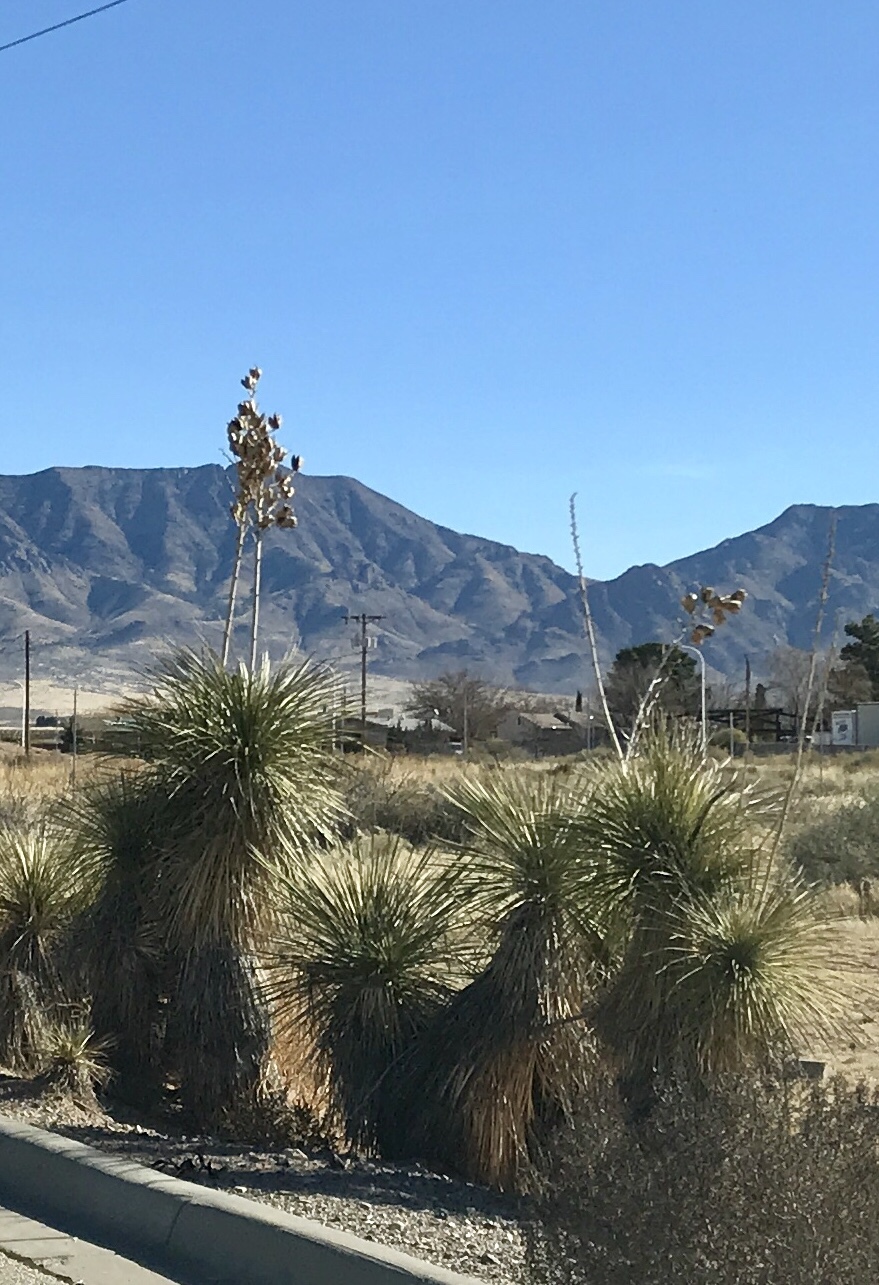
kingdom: Plantae
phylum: Tracheophyta
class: Liliopsida
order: Asparagales
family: Asparagaceae
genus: Yucca
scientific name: Yucca elata
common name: Palmella
